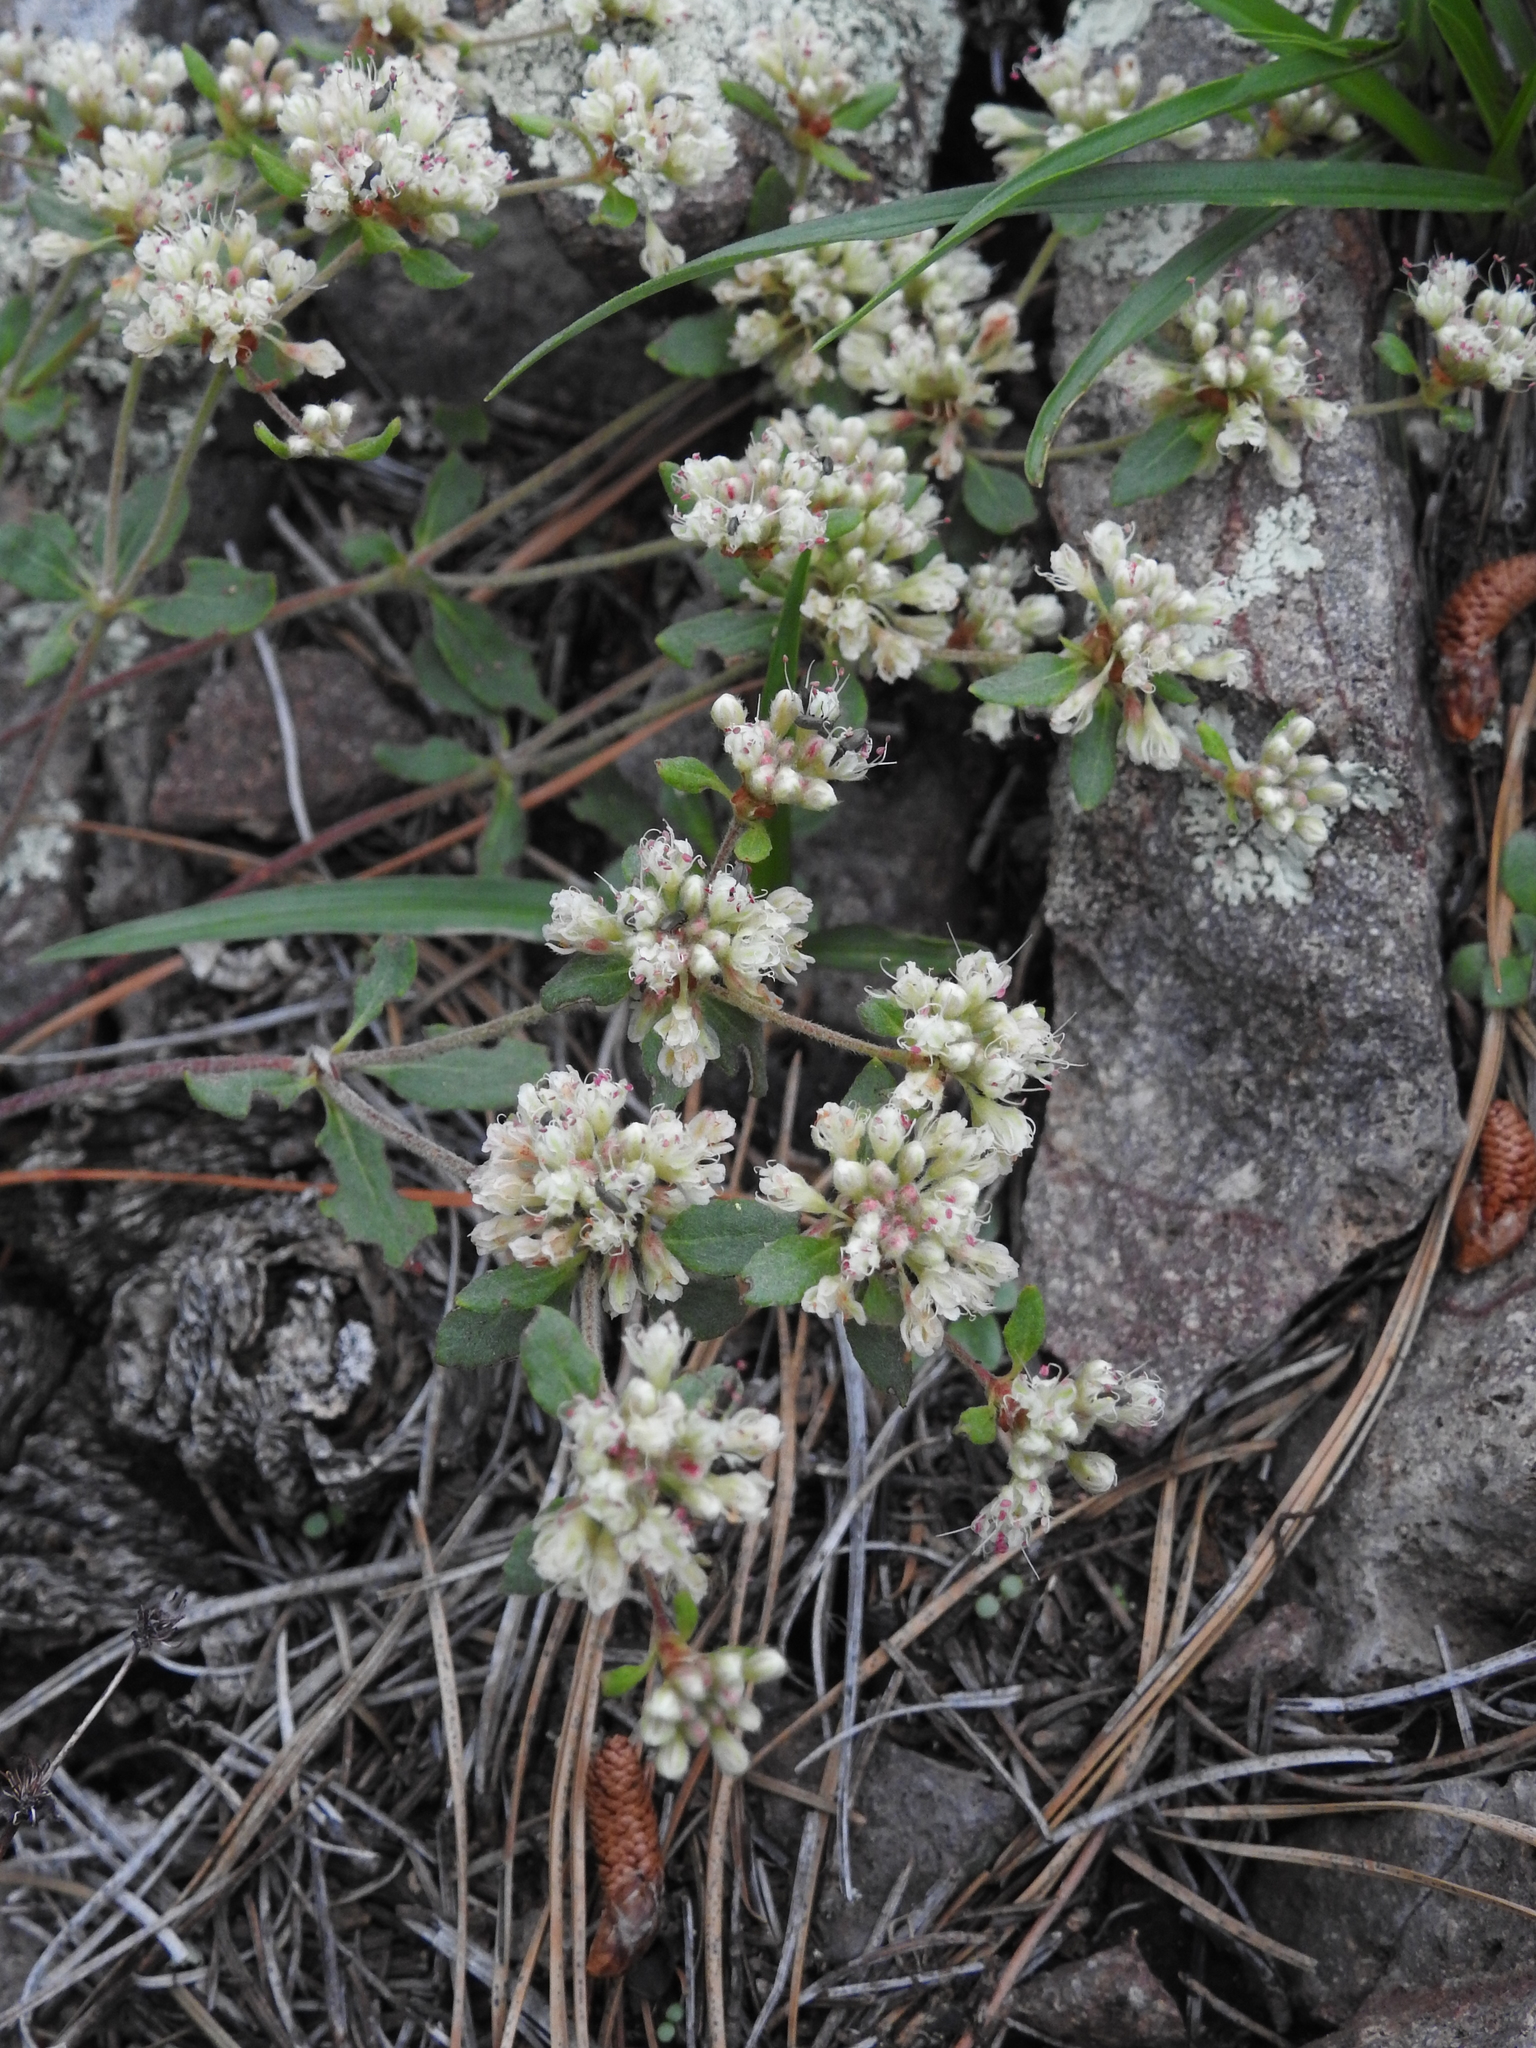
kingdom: Plantae
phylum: Tracheophyta
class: Magnoliopsida
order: Caryophyllales
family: Polygonaceae
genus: Eriogonum
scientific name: Eriogonum jamesii
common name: Antelope-sage
